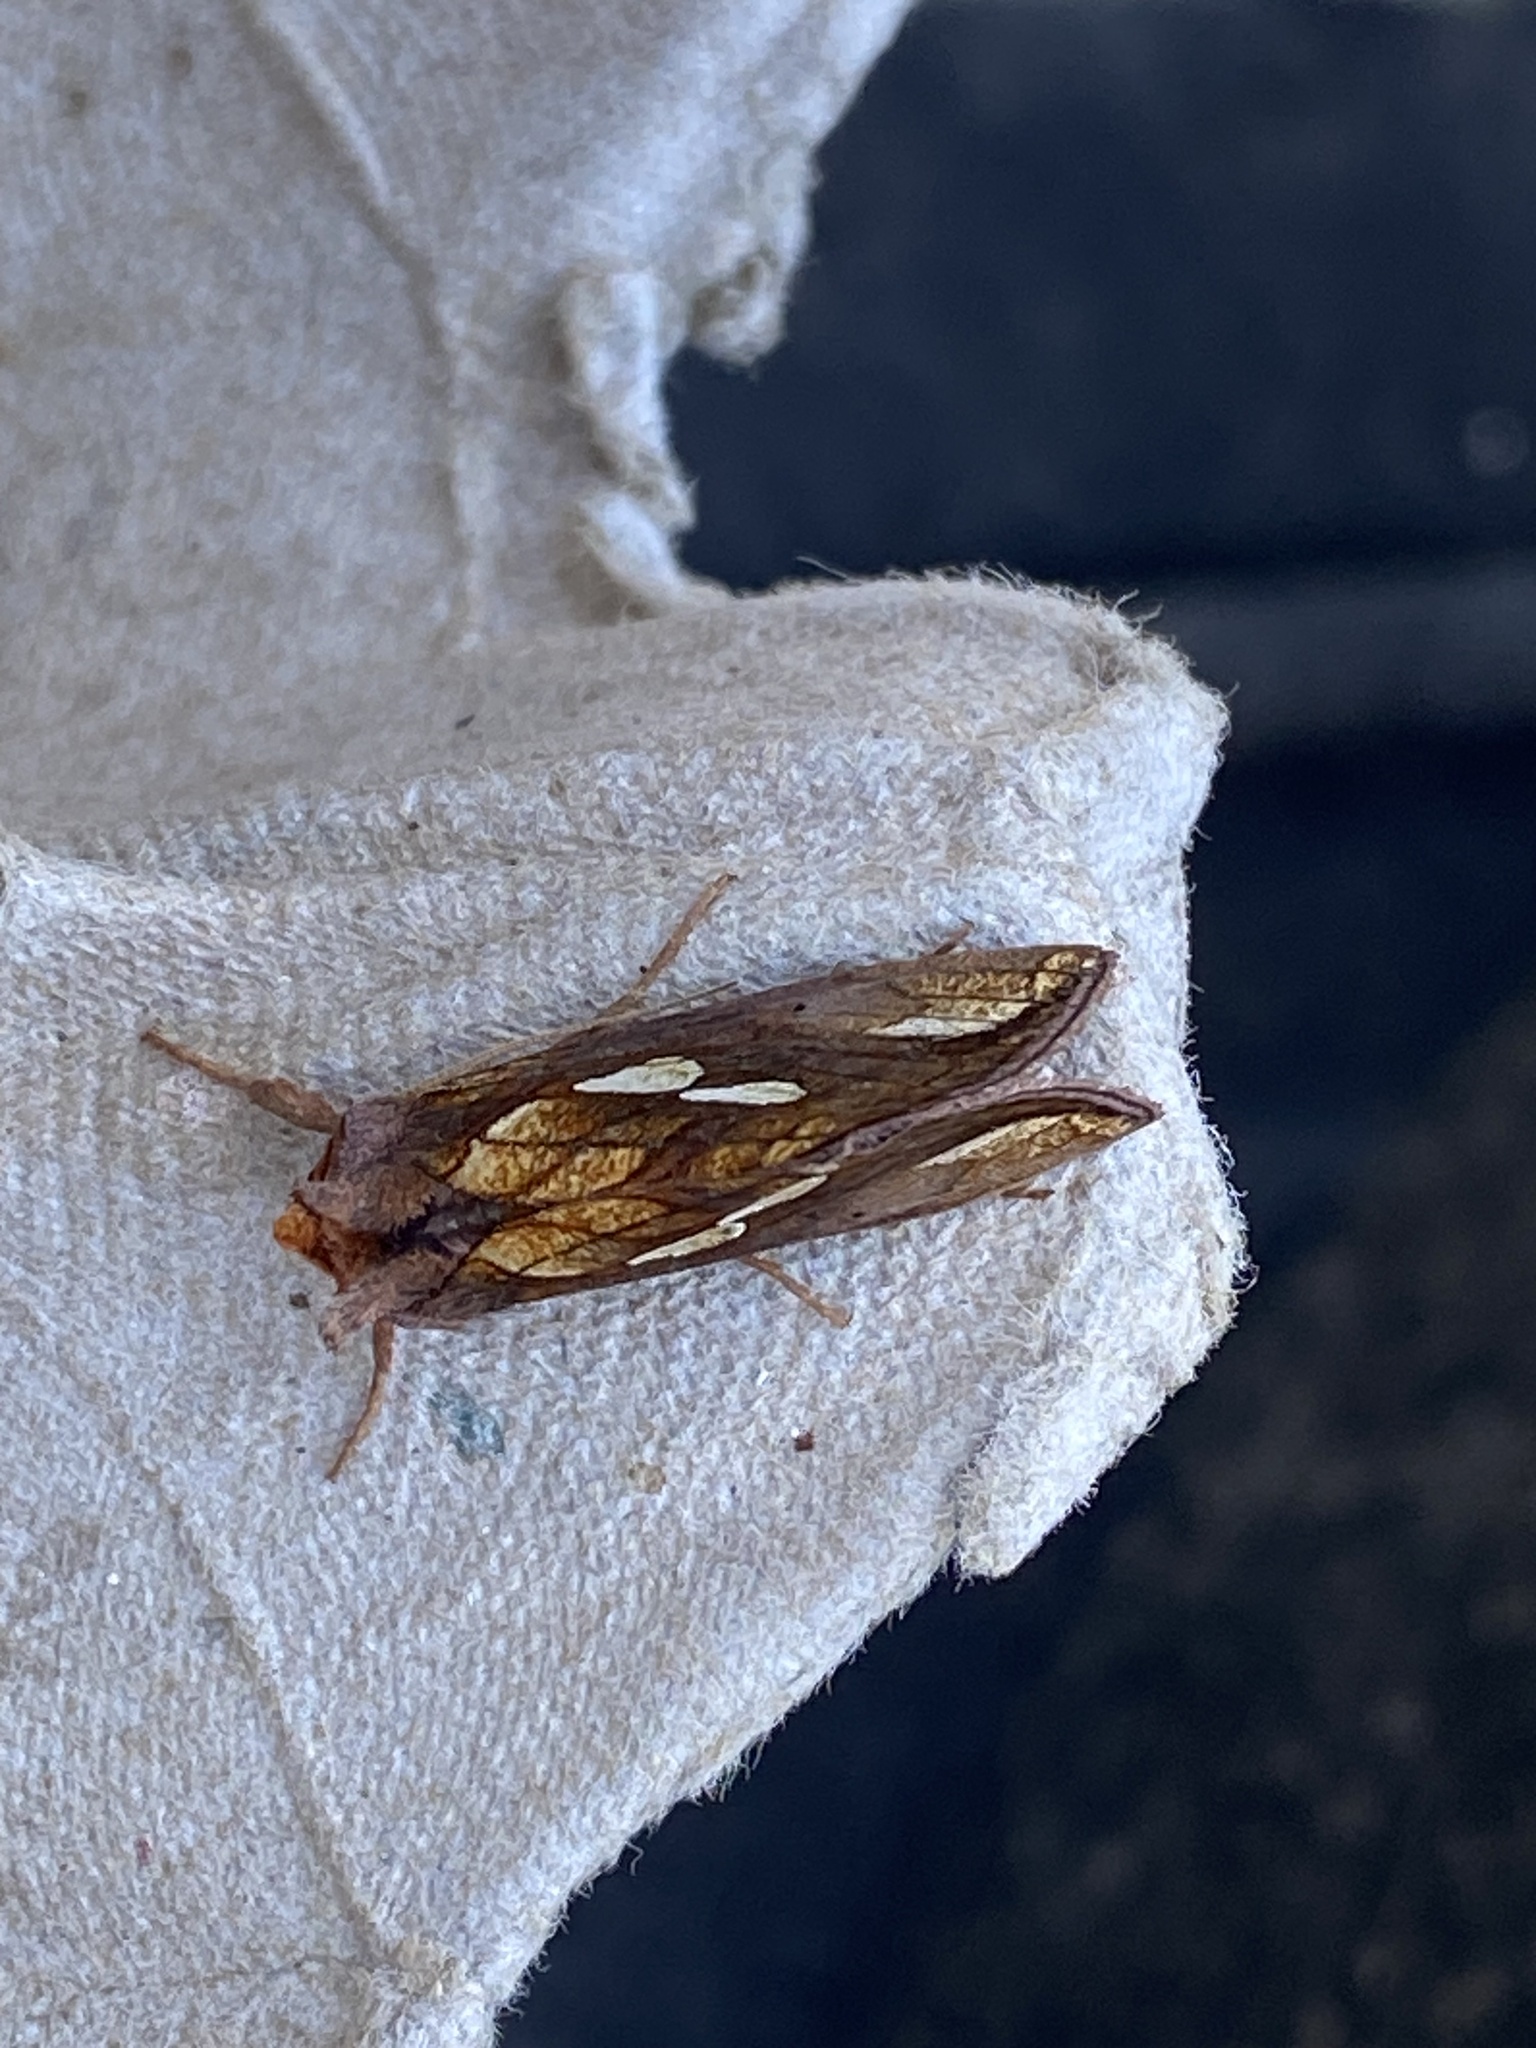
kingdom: Animalia
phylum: Arthropoda
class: Insecta
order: Lepidoptera
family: Noctuidae
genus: Plusia
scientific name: Plusia festucae
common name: Gold spot
